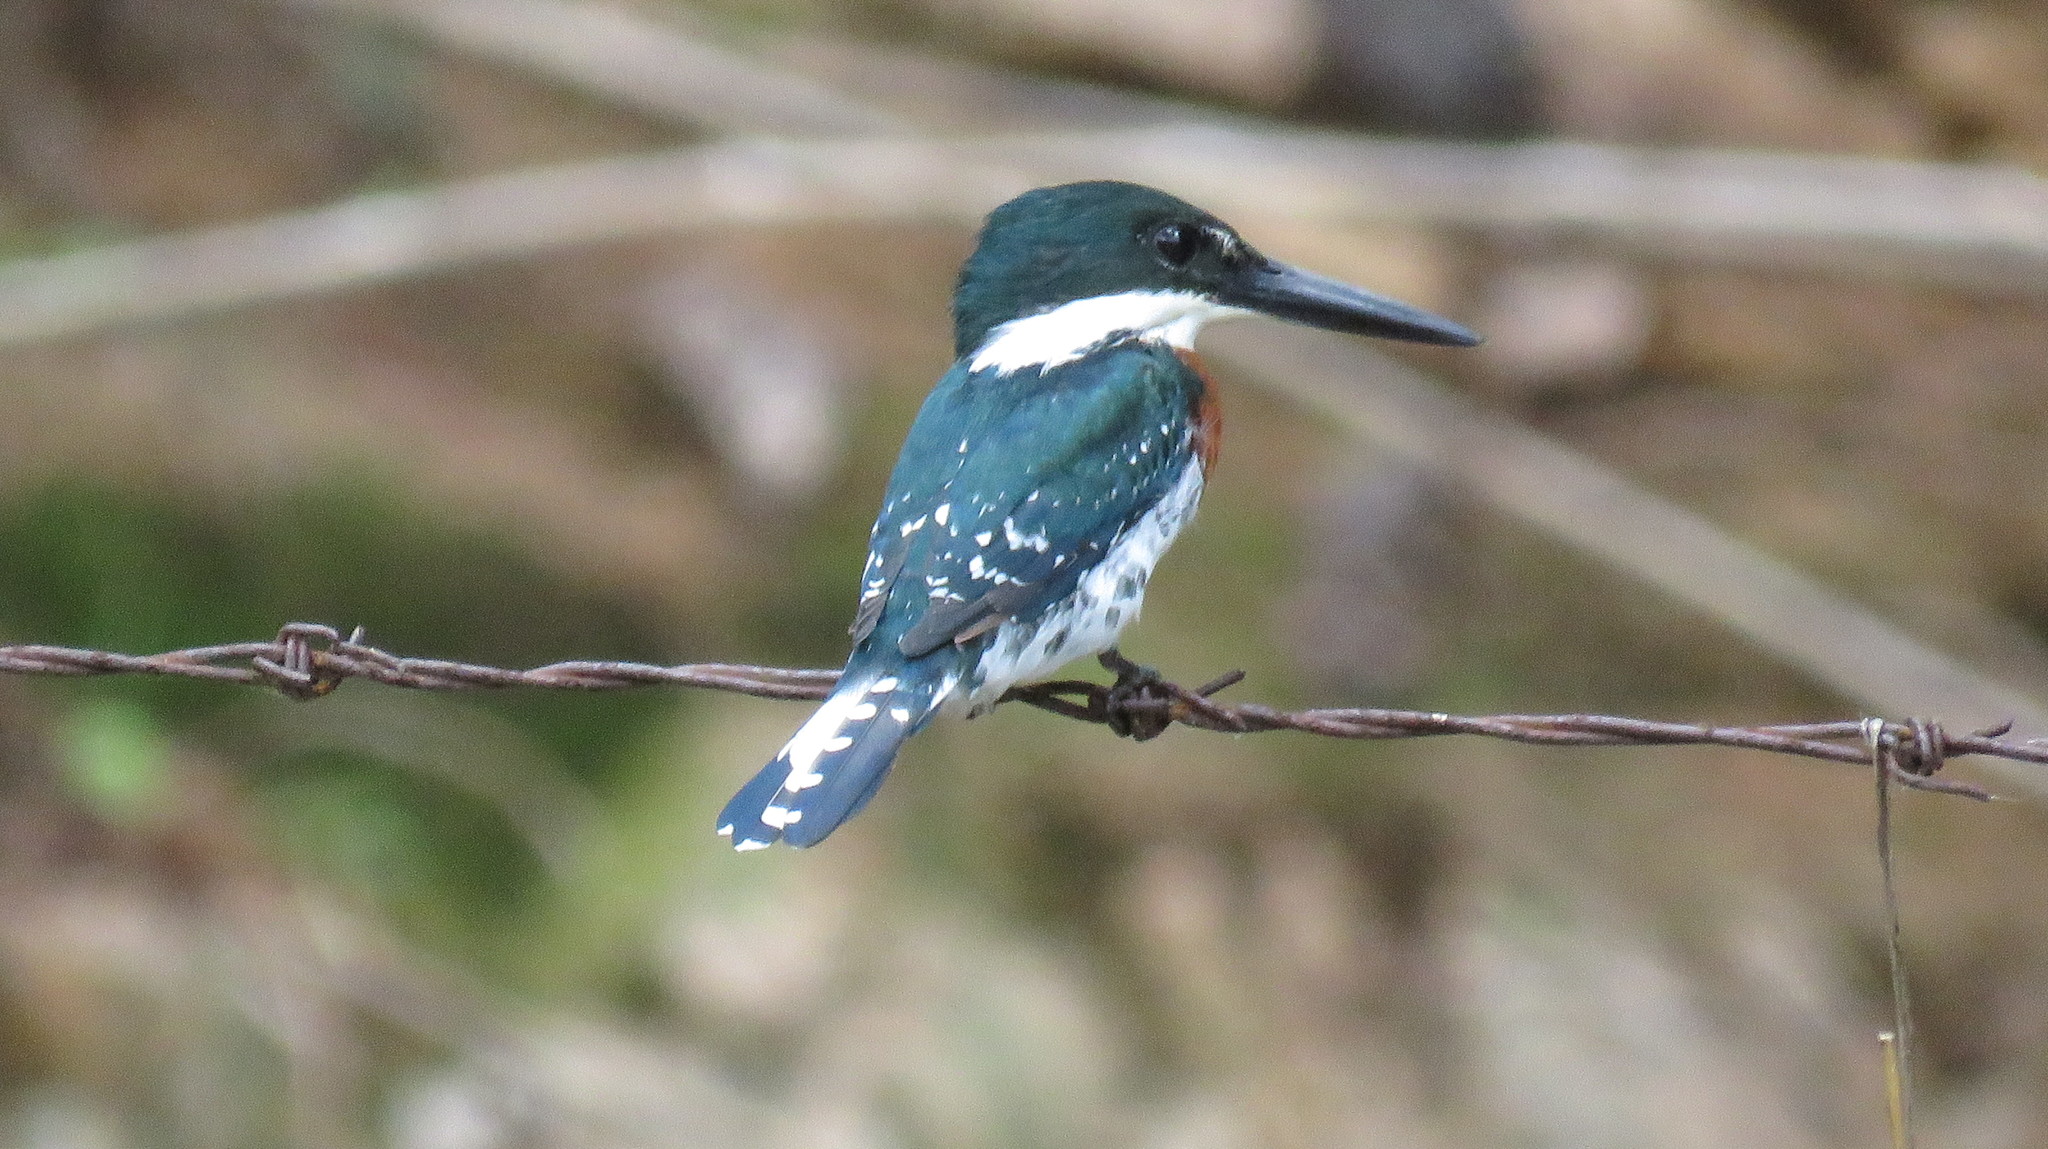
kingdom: Animalia
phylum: Chordata
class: Aves
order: Coraciiformes
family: Alcedinidae
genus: Chloroceryle
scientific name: Chloroceryle americana
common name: Green kingfisher
